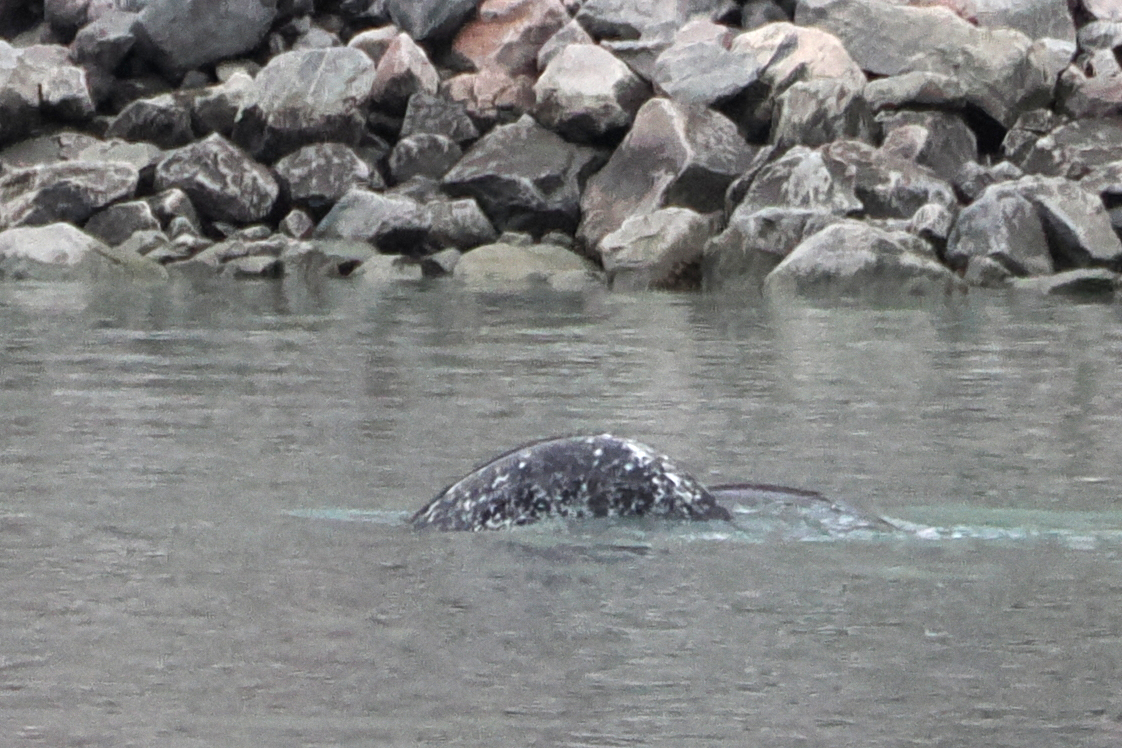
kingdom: Animalia
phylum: Chordata
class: Mammalia
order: Cetacea
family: Monodontidae
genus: Monodon
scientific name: Monodon monoceros
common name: Narwhal
